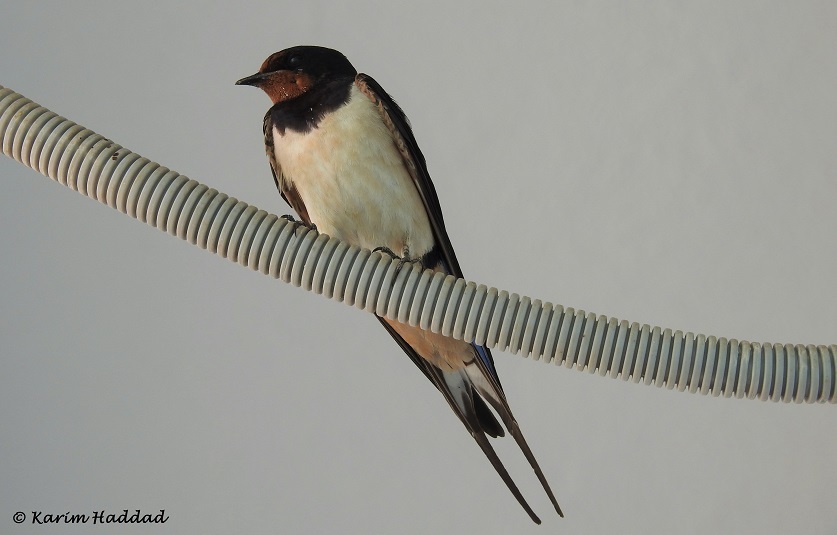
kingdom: Animalia
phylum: Chordata
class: Aves
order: Passeriformes
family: Hirundinidae
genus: Hirundo
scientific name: Hirundo rustica
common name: Barn swallow
